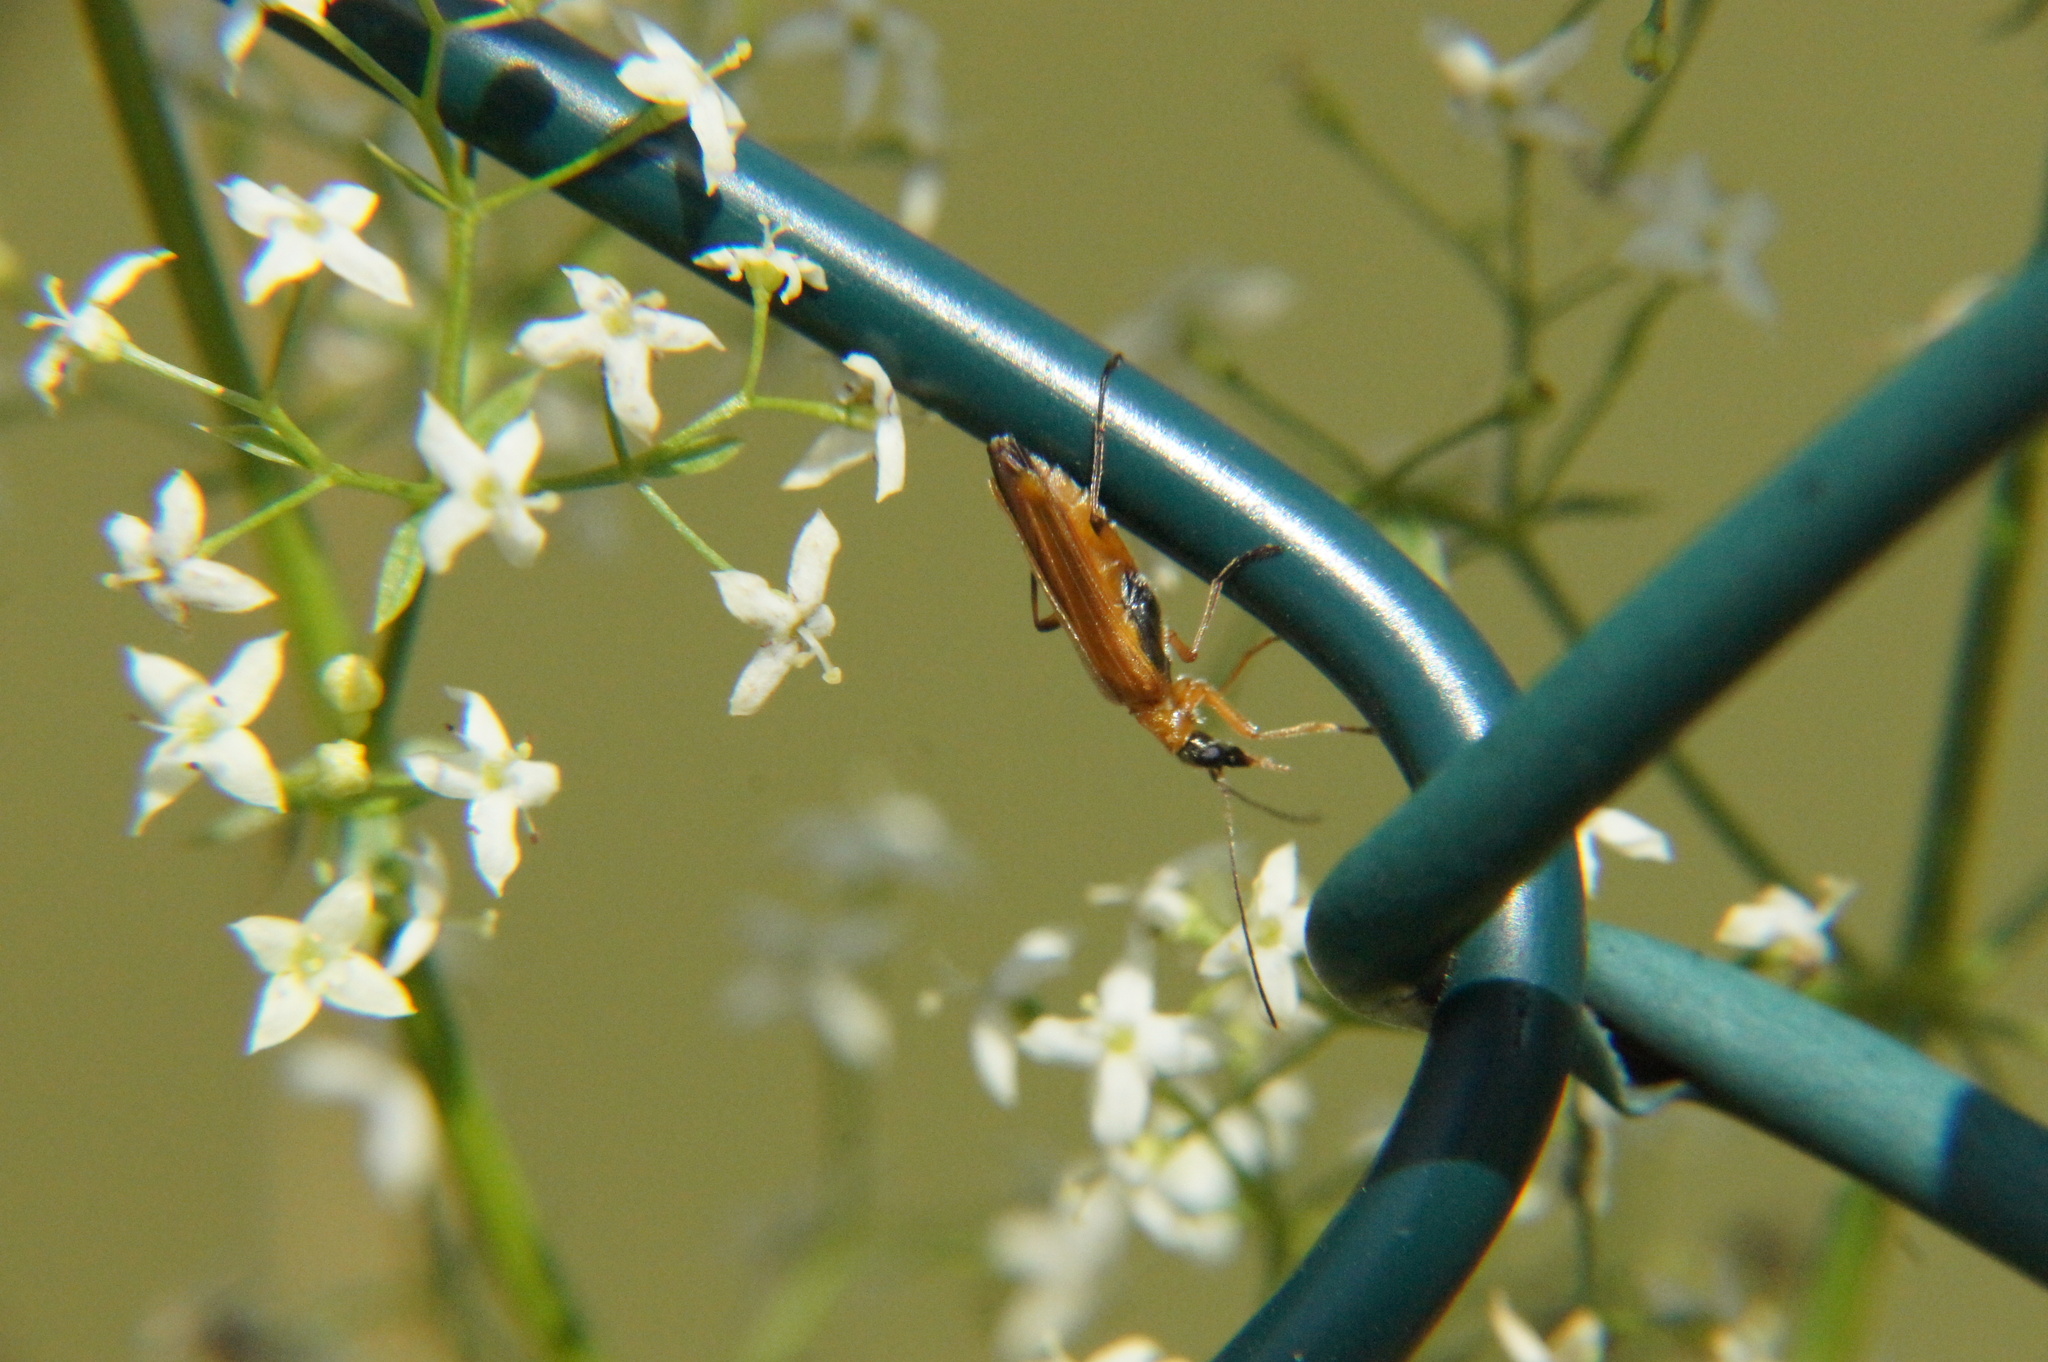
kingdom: Animalia
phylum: Arthropoda
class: Insecta
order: Coleoptera
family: Oedemeridae
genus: Oedemera
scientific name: Oedemera podagrariae
